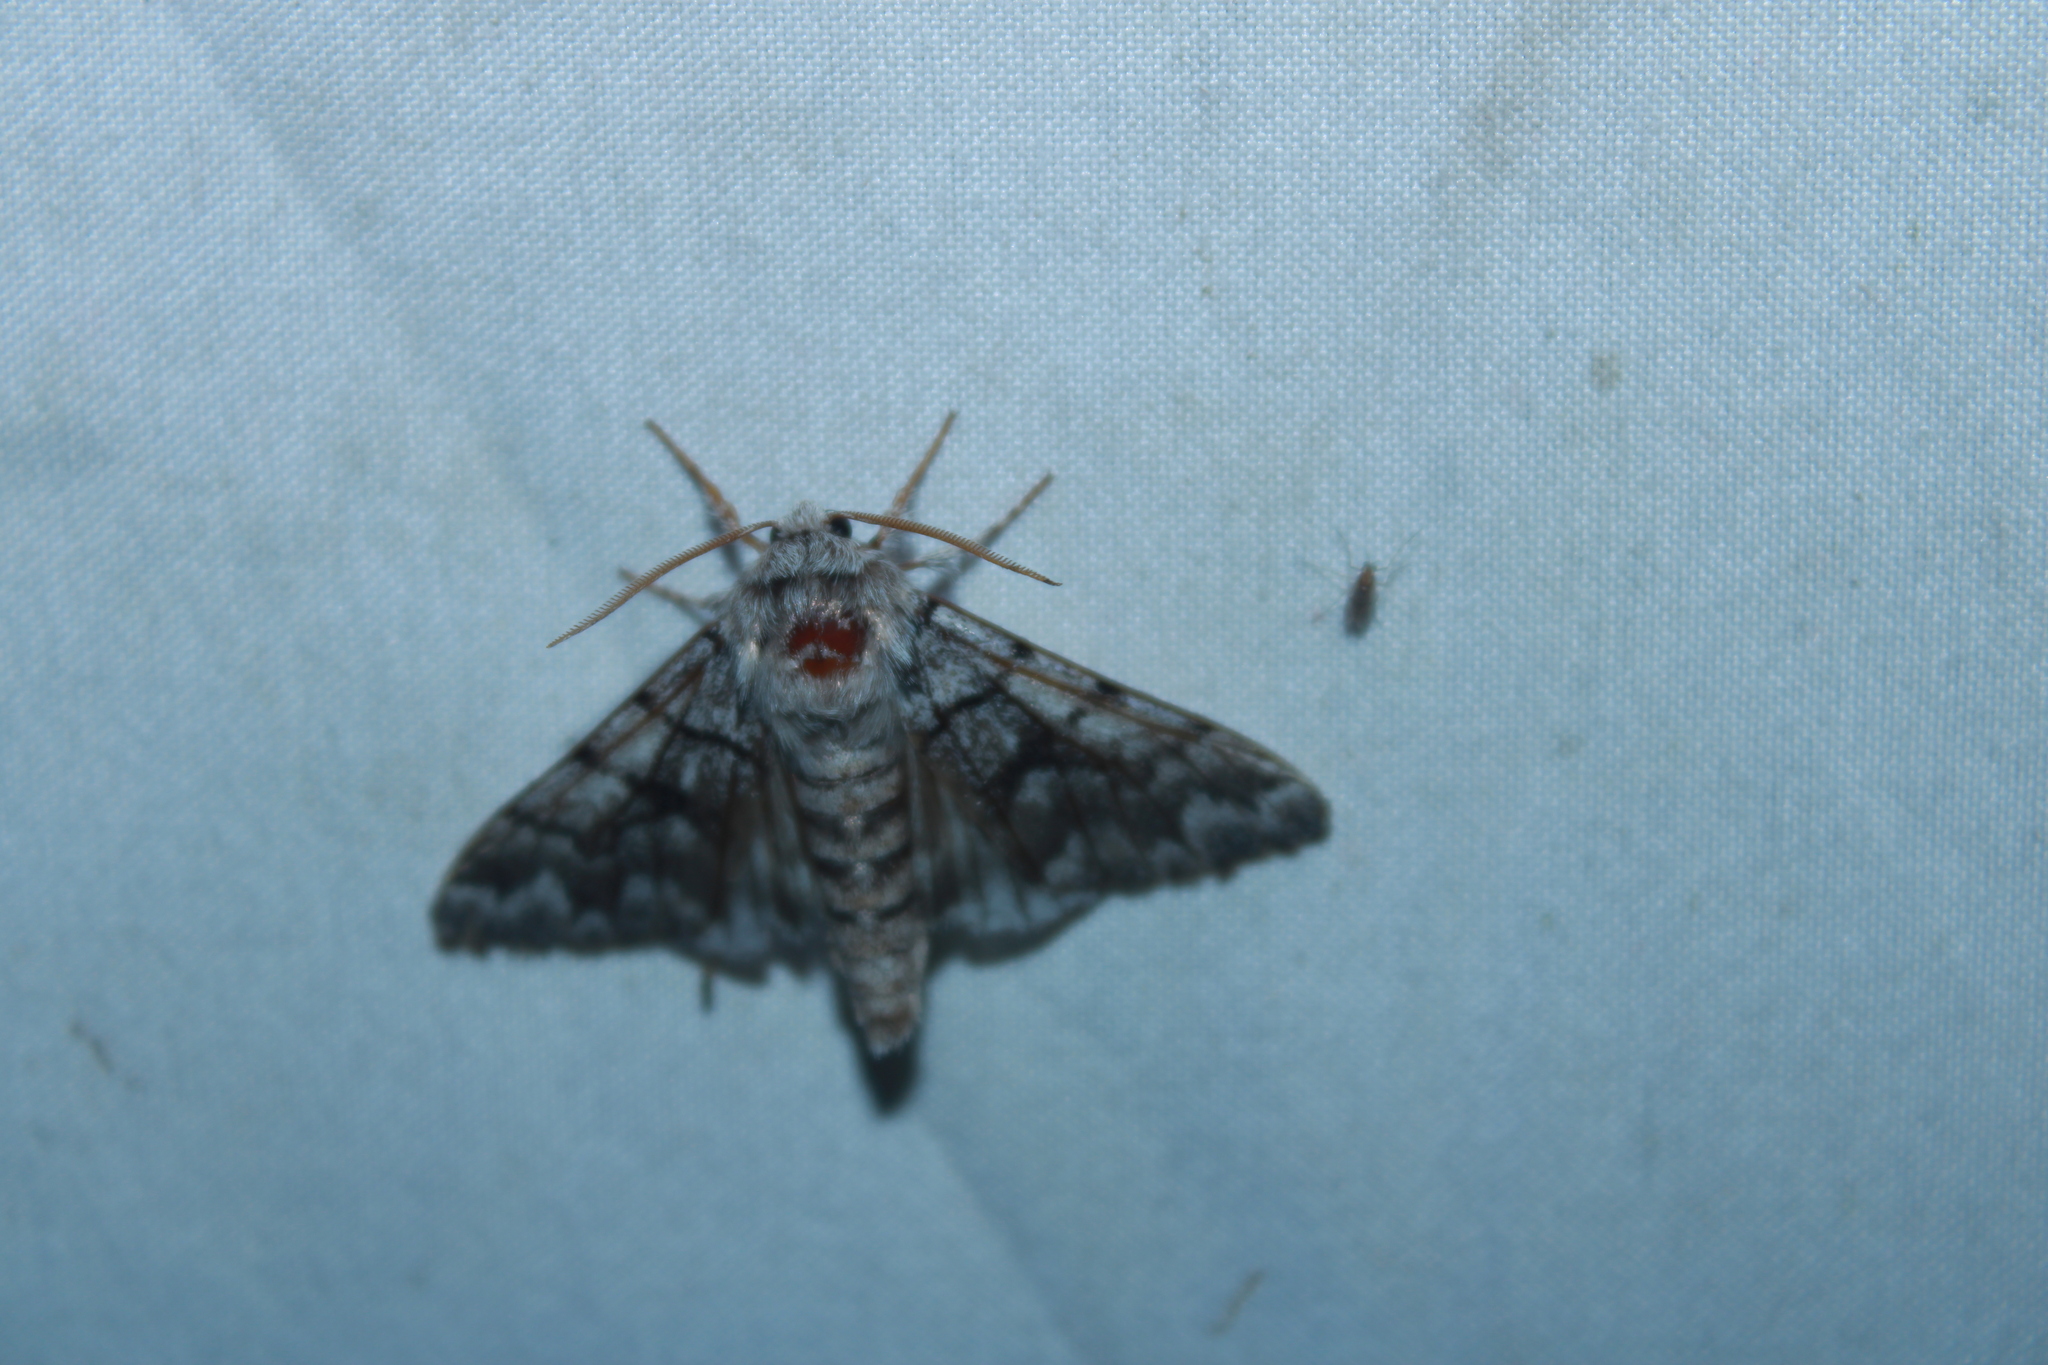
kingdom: Animalia
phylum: Arthropoda
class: Insecta
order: Lepidoptera
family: Noctuidae
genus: Panthea
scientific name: Panthea furcilla
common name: Eastern panthea moth
